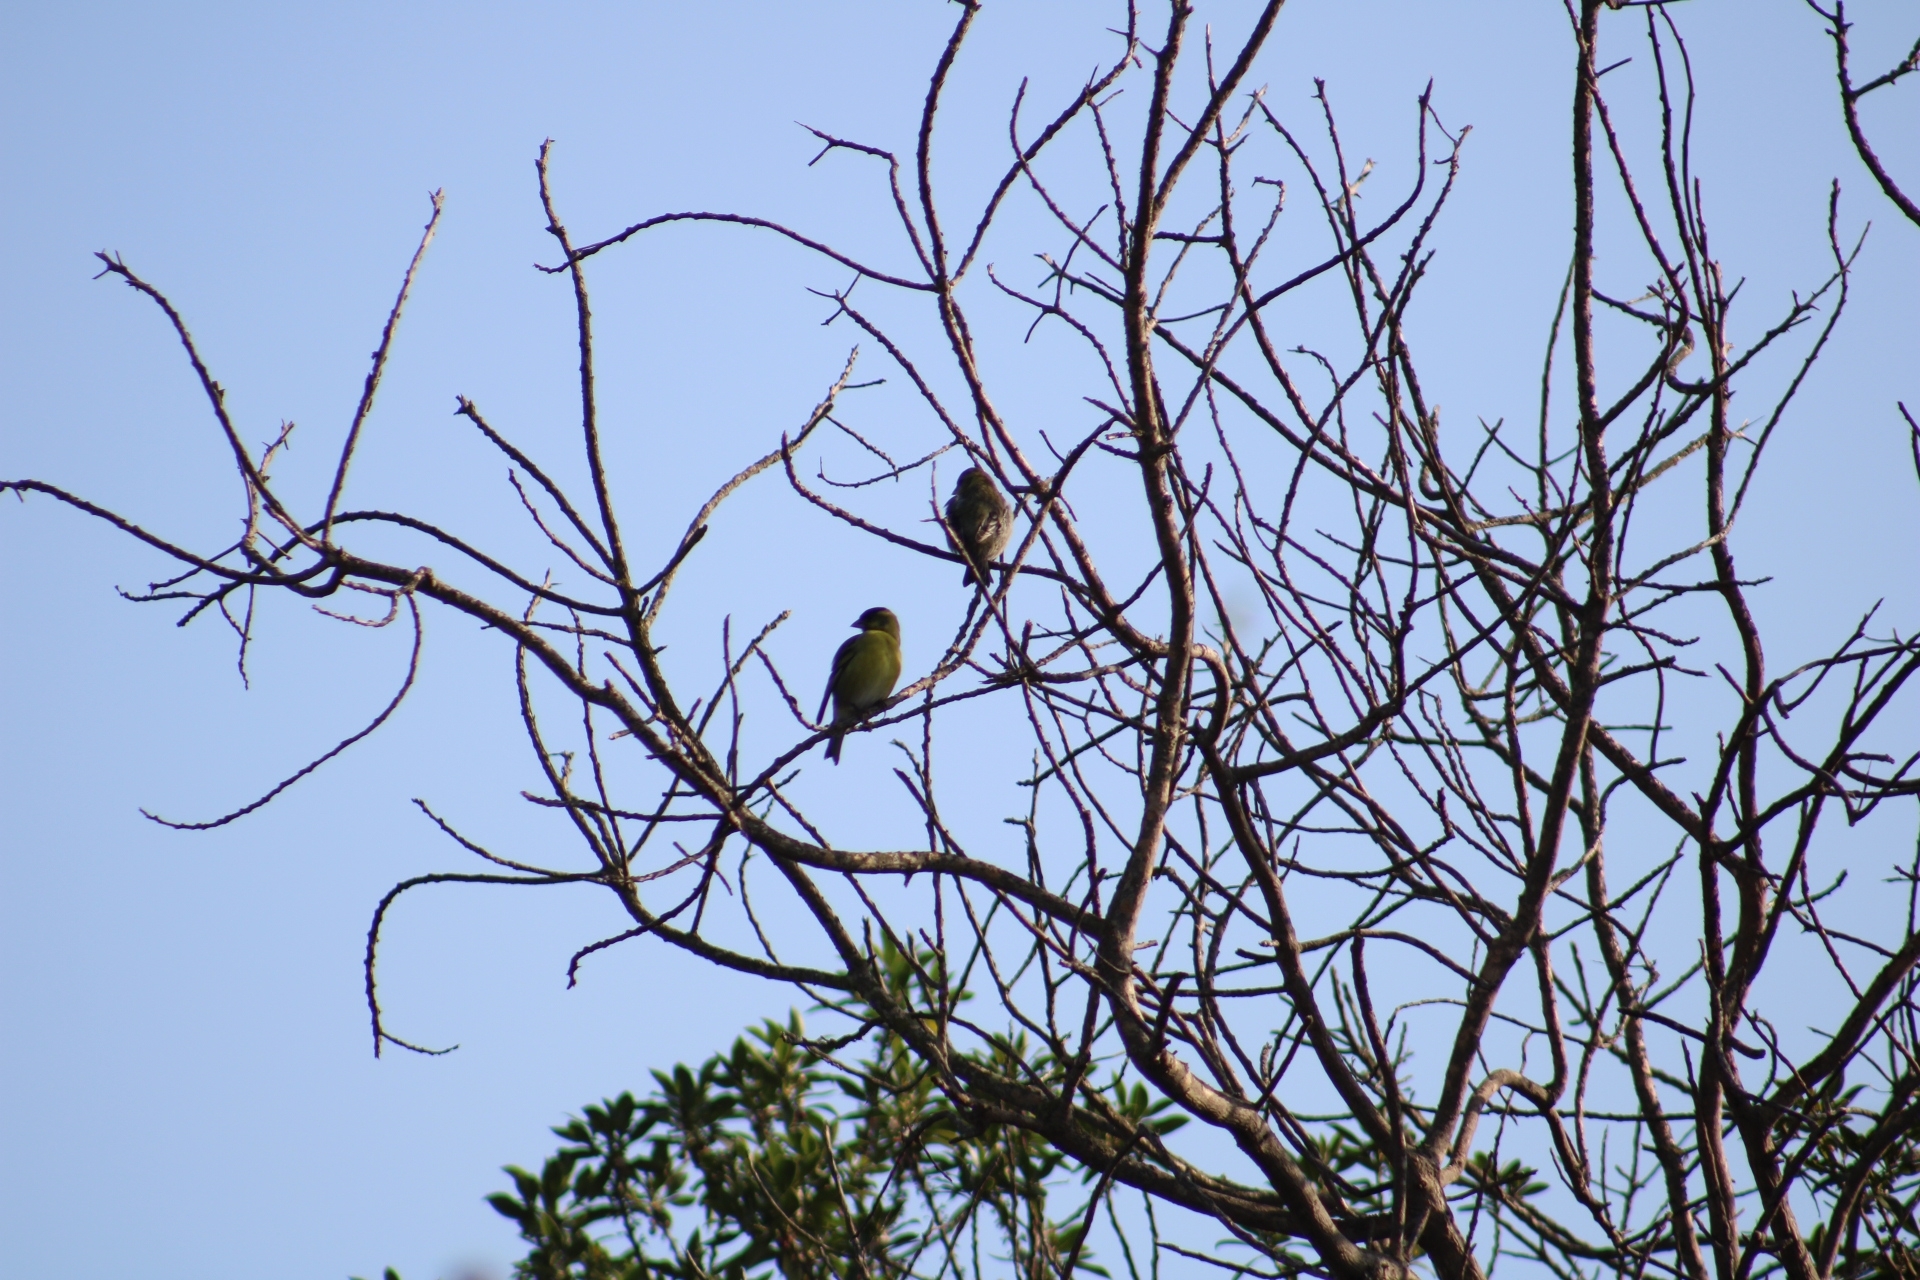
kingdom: Animalia
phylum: Chordata
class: Aves
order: Passeriformes
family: Fringillidae
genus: Spinus
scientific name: Spinus barbatus
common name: Black-chinned siskin
